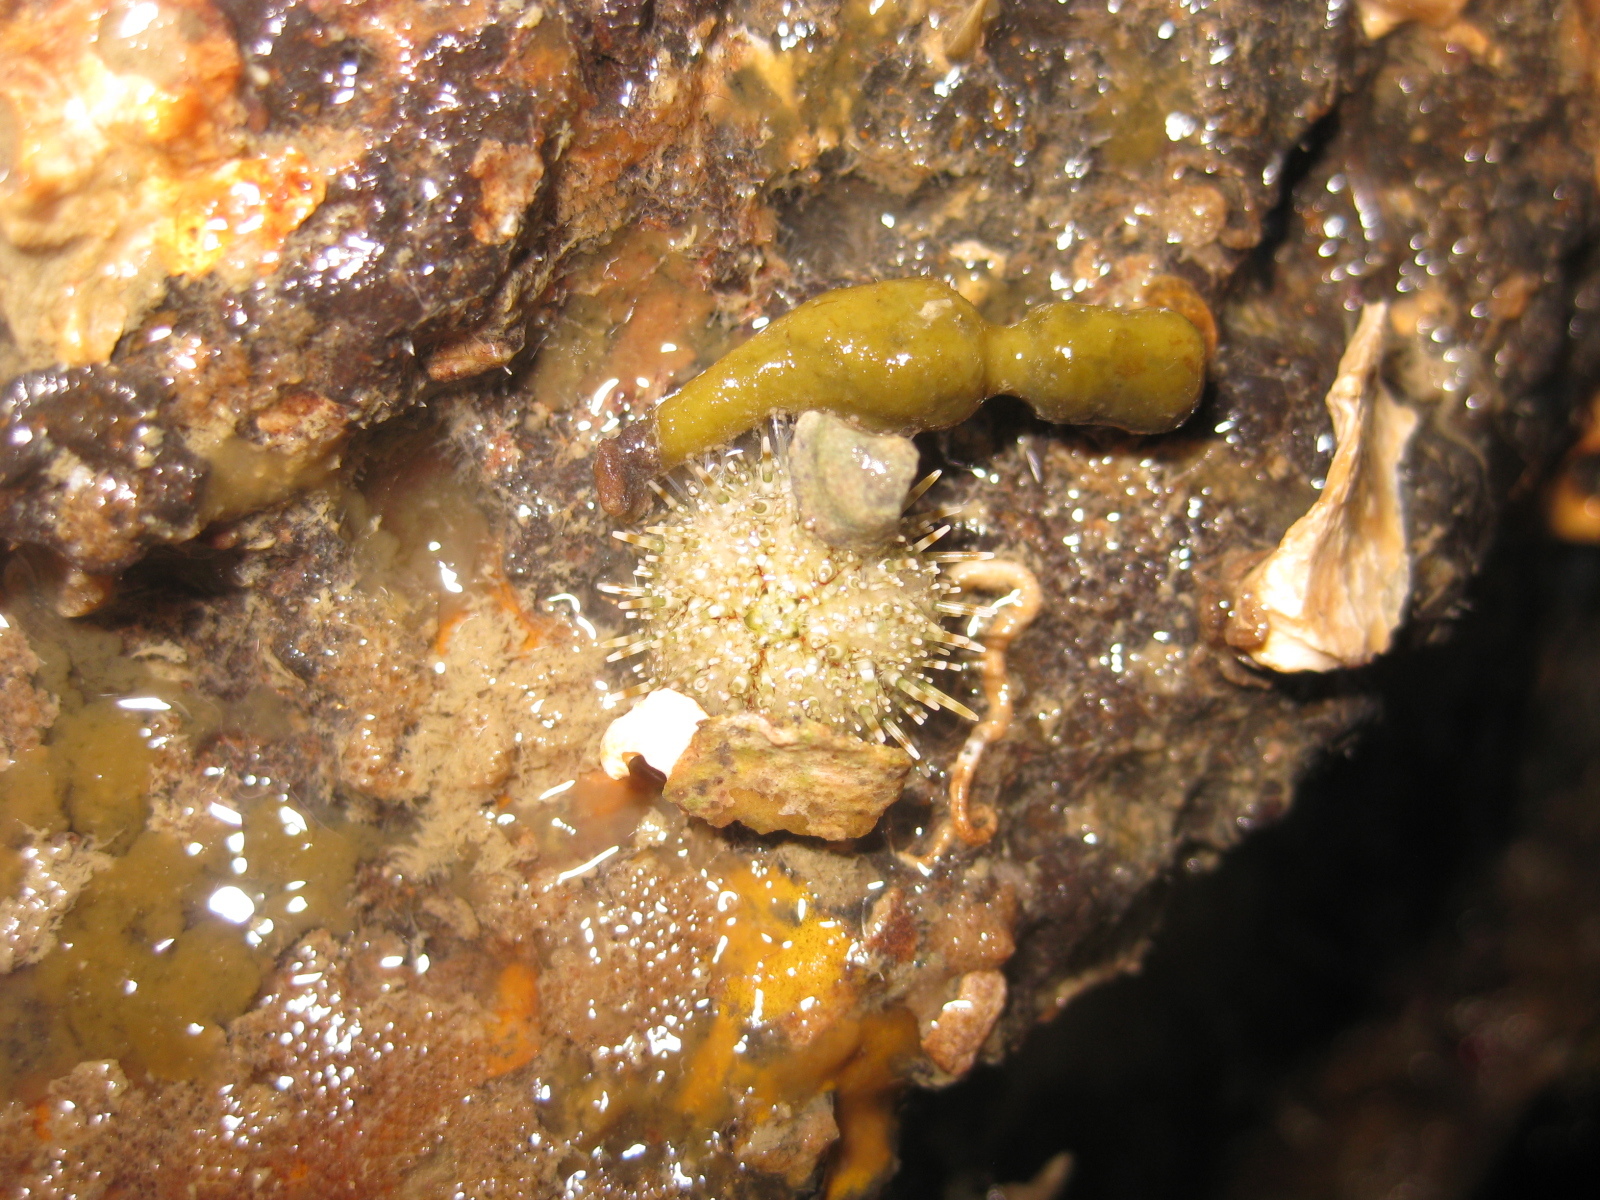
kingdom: Animalia
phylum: Echinodermata
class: Echinoidea
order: Camarodonta
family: Echinometridae
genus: Evechinus
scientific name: Evechinus chloroticus
